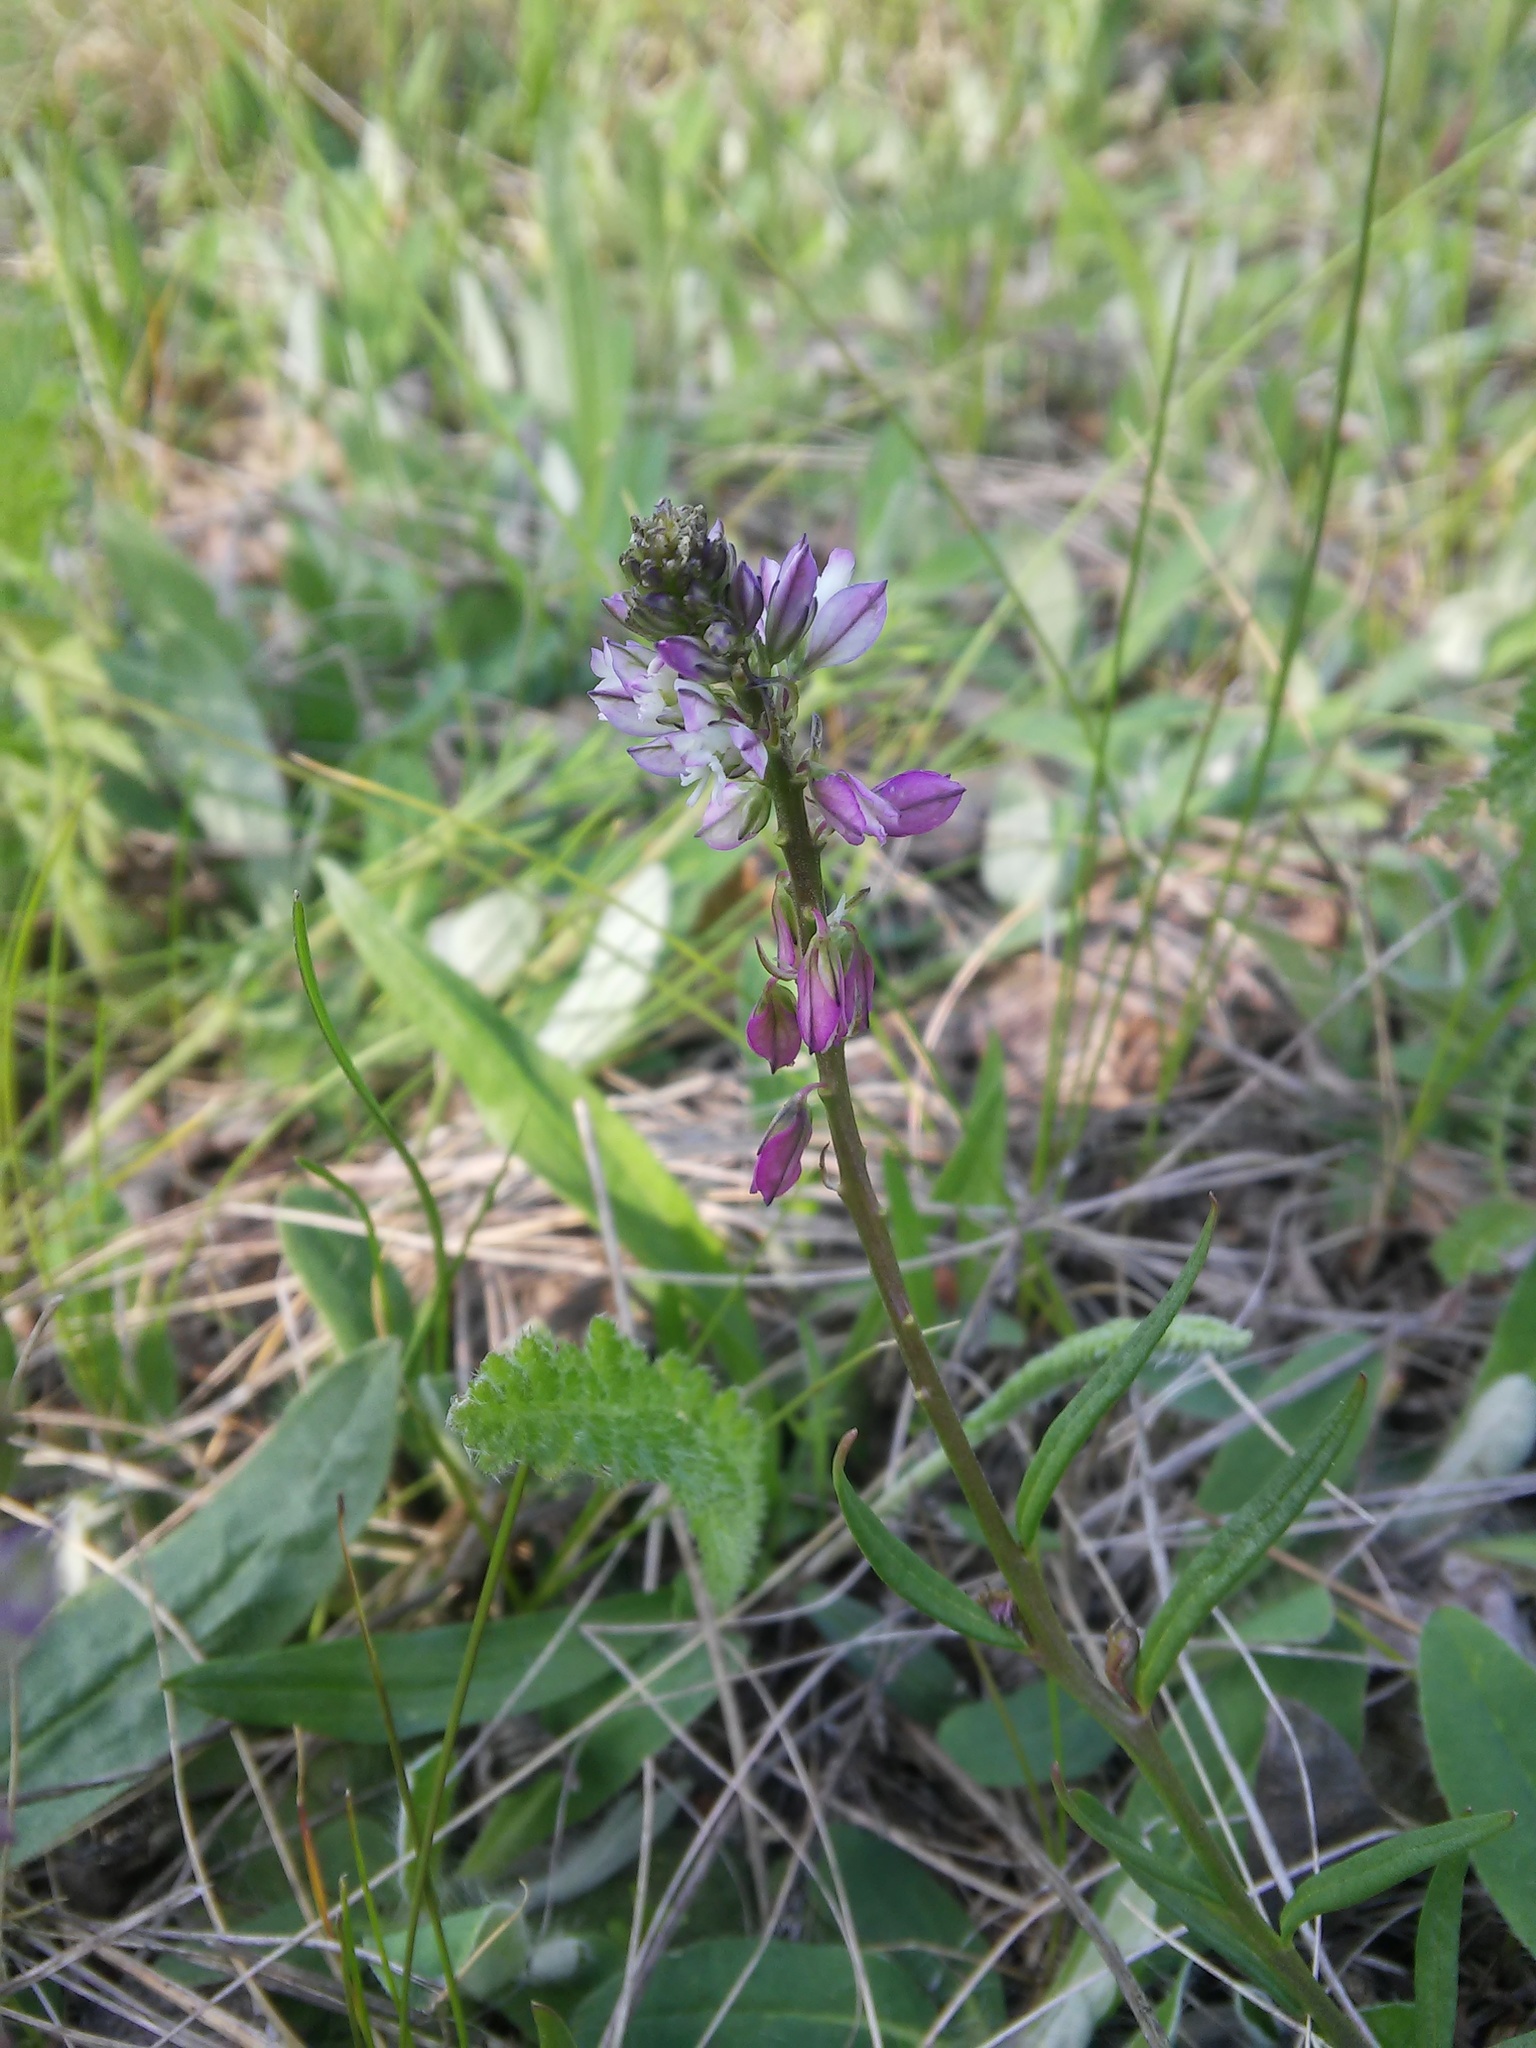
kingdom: Plantae
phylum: Tracheophyta
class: Magnoliopsida
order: Fabales
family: Polygalaceae
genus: Polygala
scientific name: Polygala comosa
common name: Tufted milkwort
